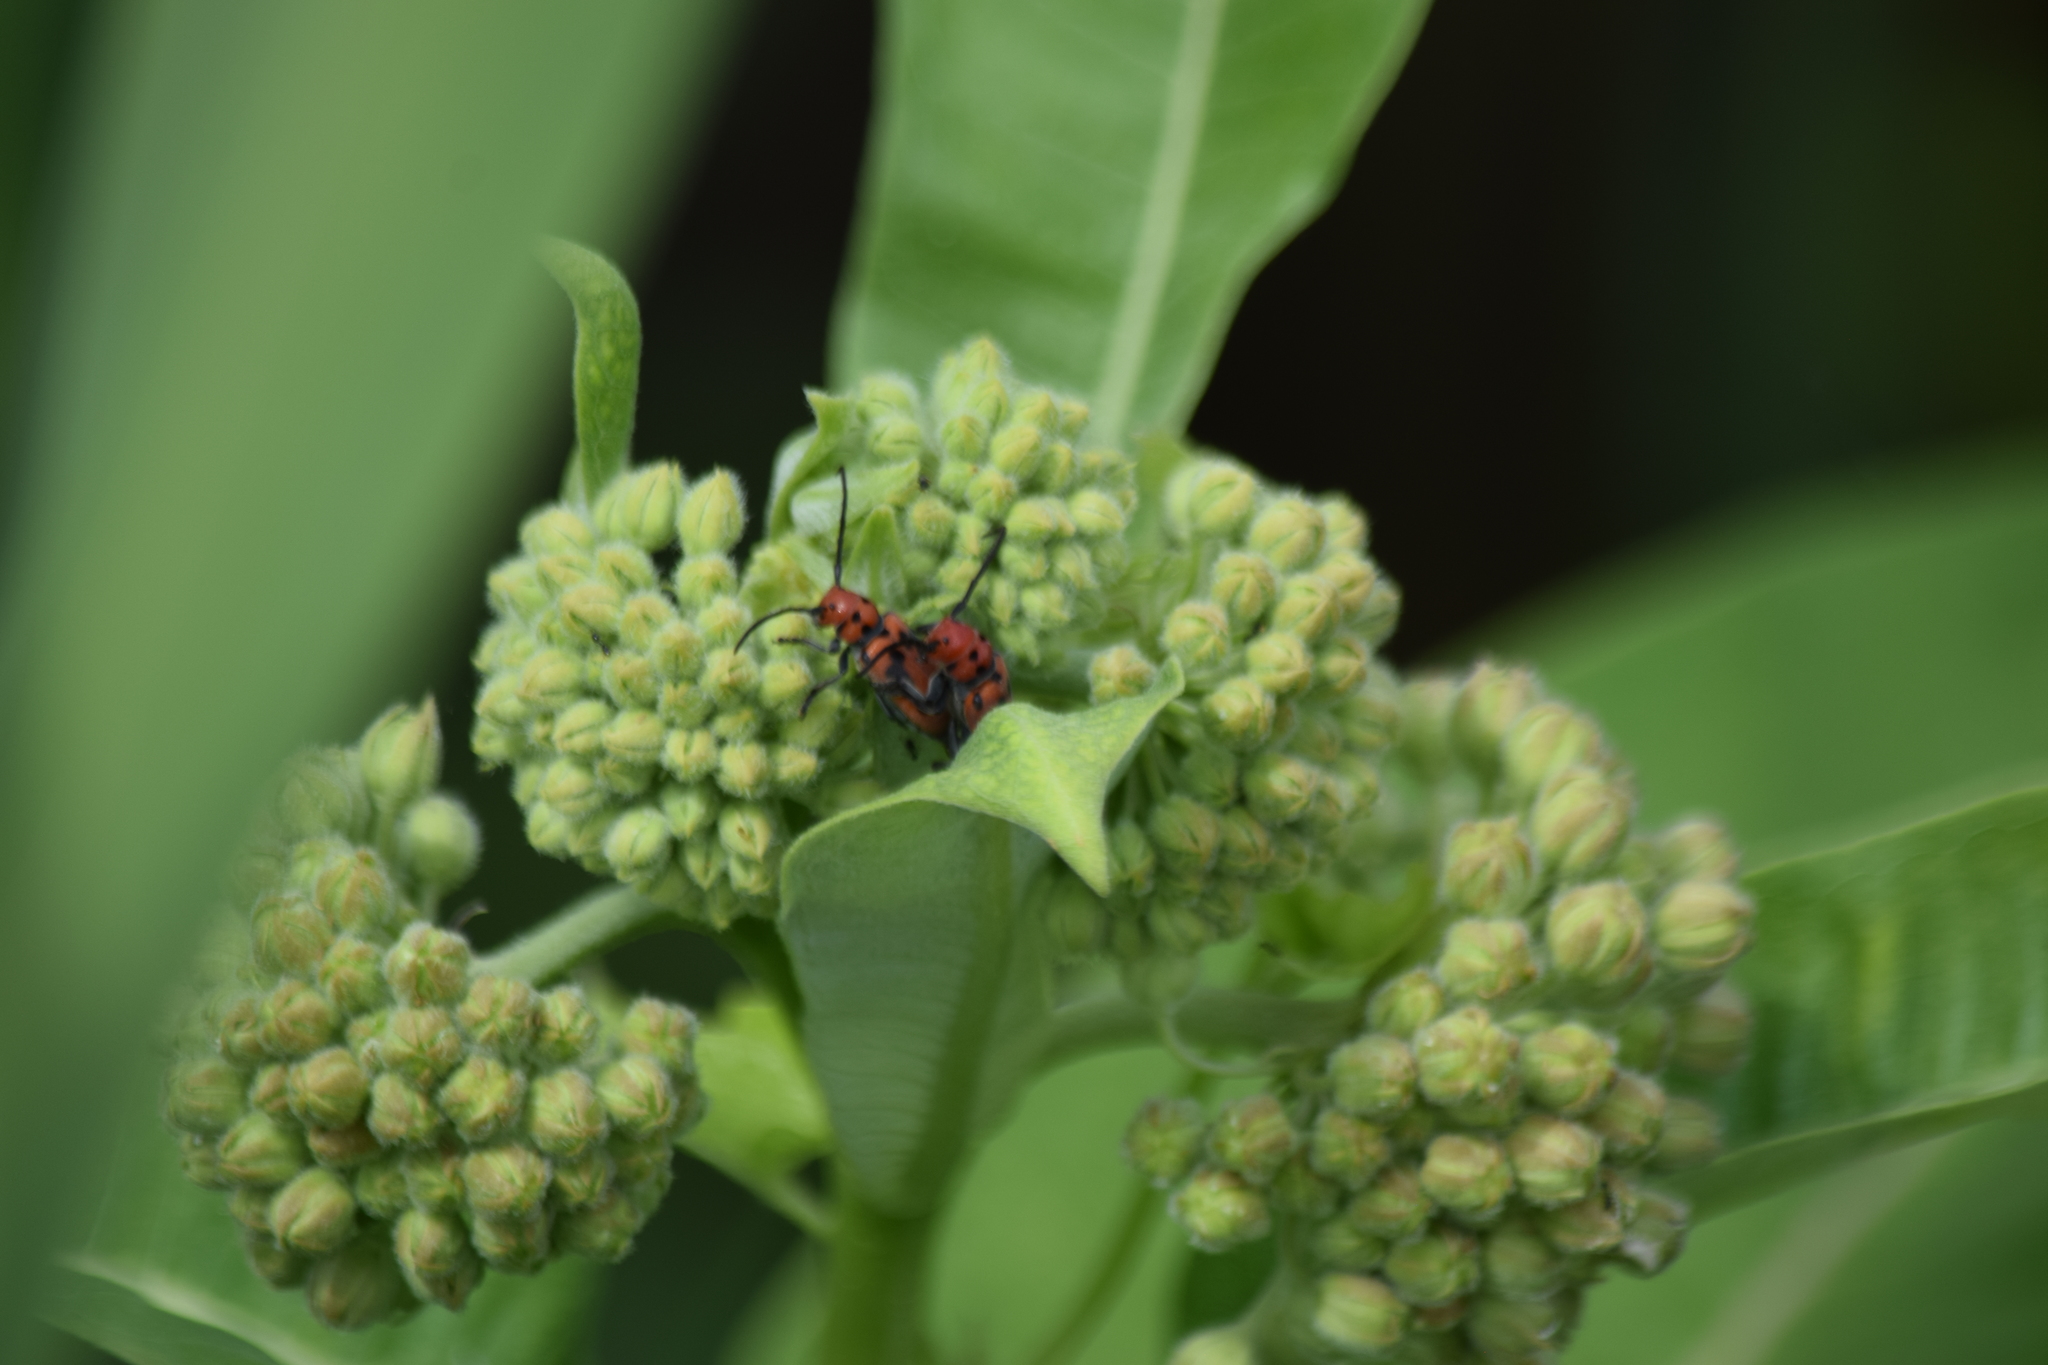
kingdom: Animalia
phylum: Arthropoda
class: Insecta
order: Coleoptera
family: Cerambycidae
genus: Tetraopes
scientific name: Tetraopes tetrophthalmus
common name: Red milkweed beetle
